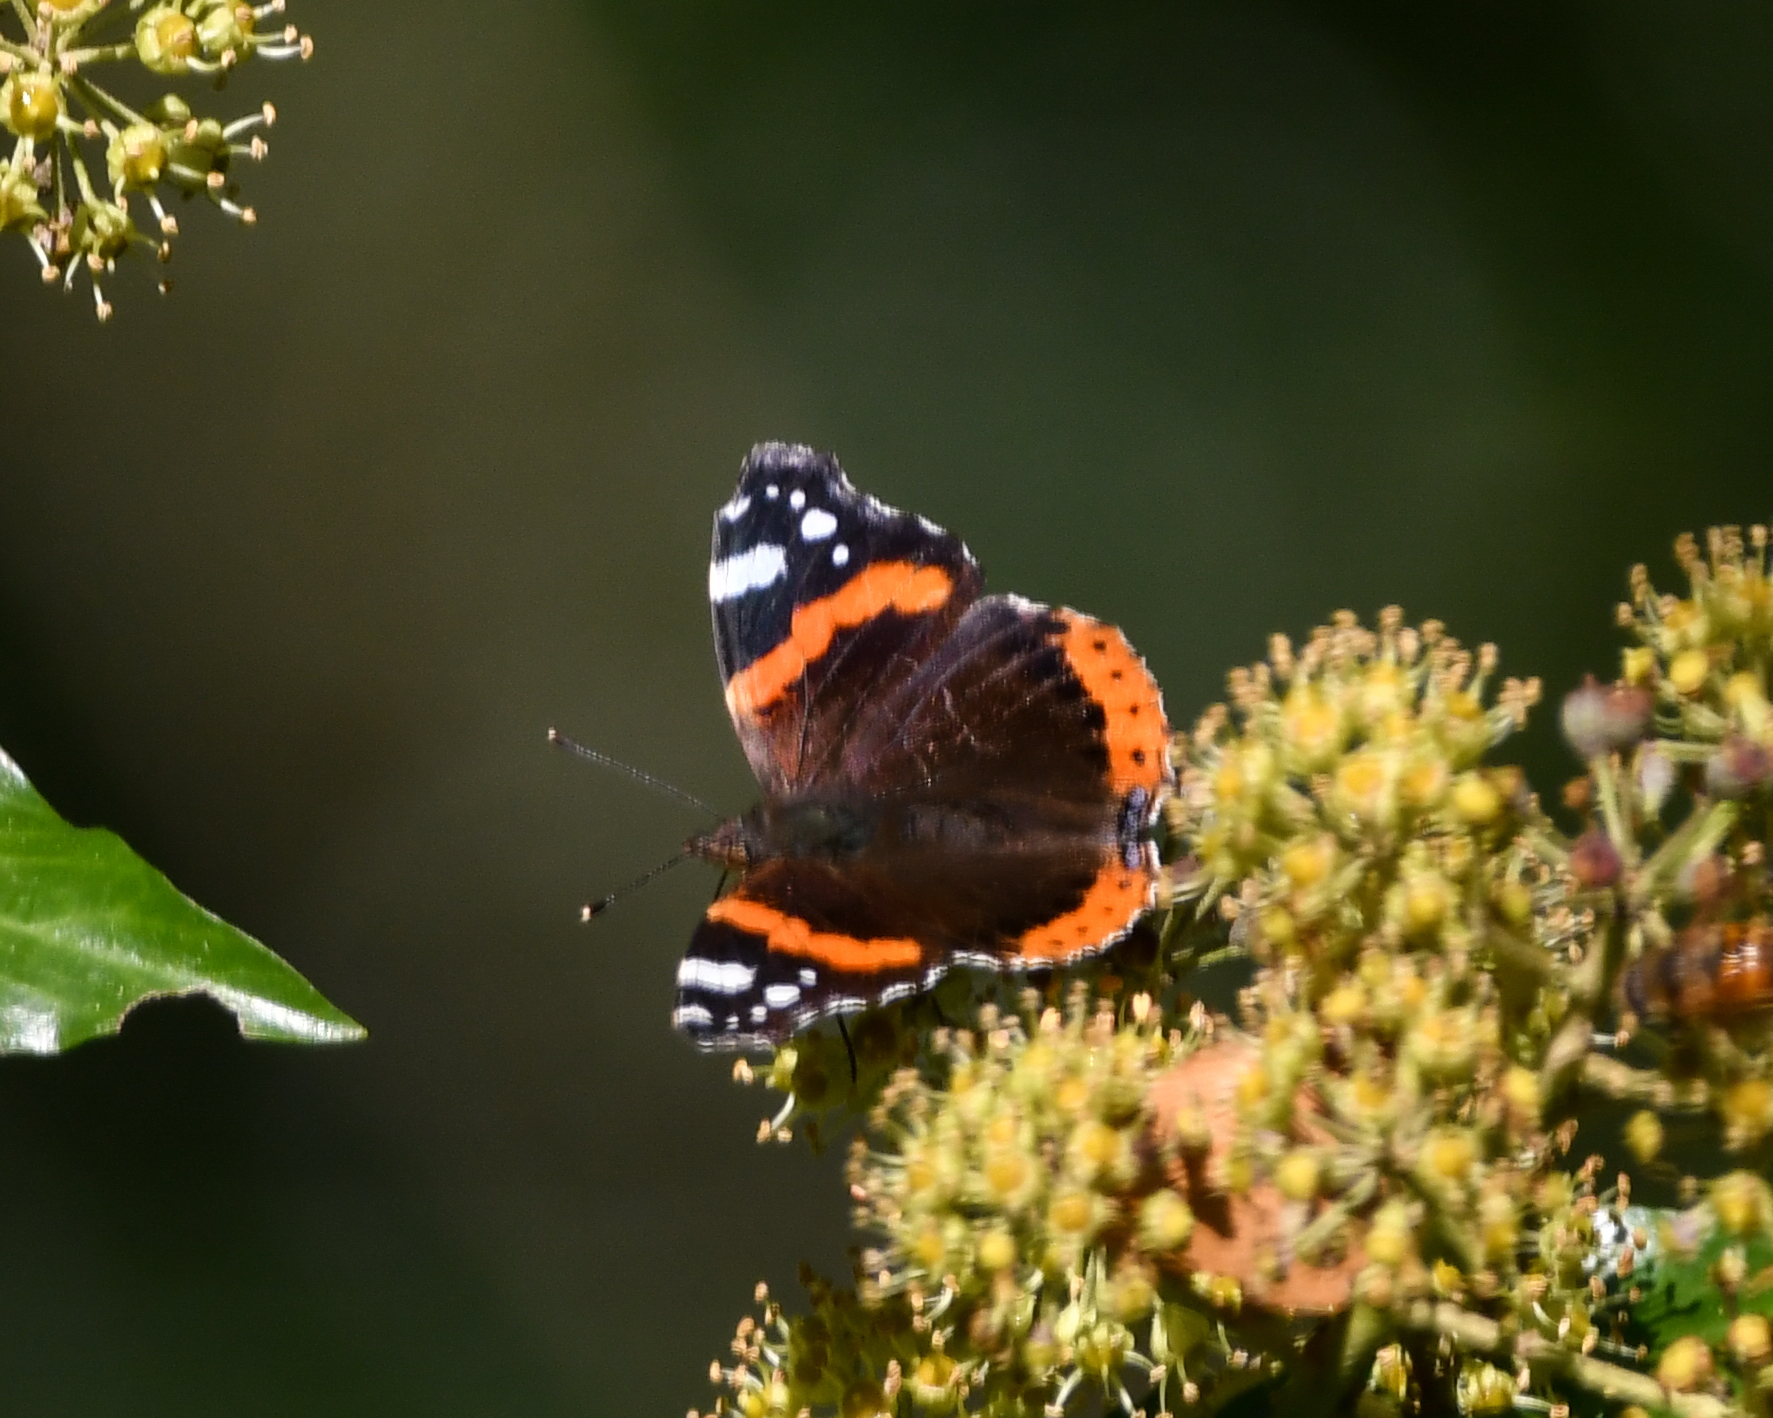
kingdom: Animalia
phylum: Arthropoda
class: Insecta
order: Lepidoptera
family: Nymphalidae
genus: Vanessa
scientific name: Vanessa atalanta
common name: Red admiral
